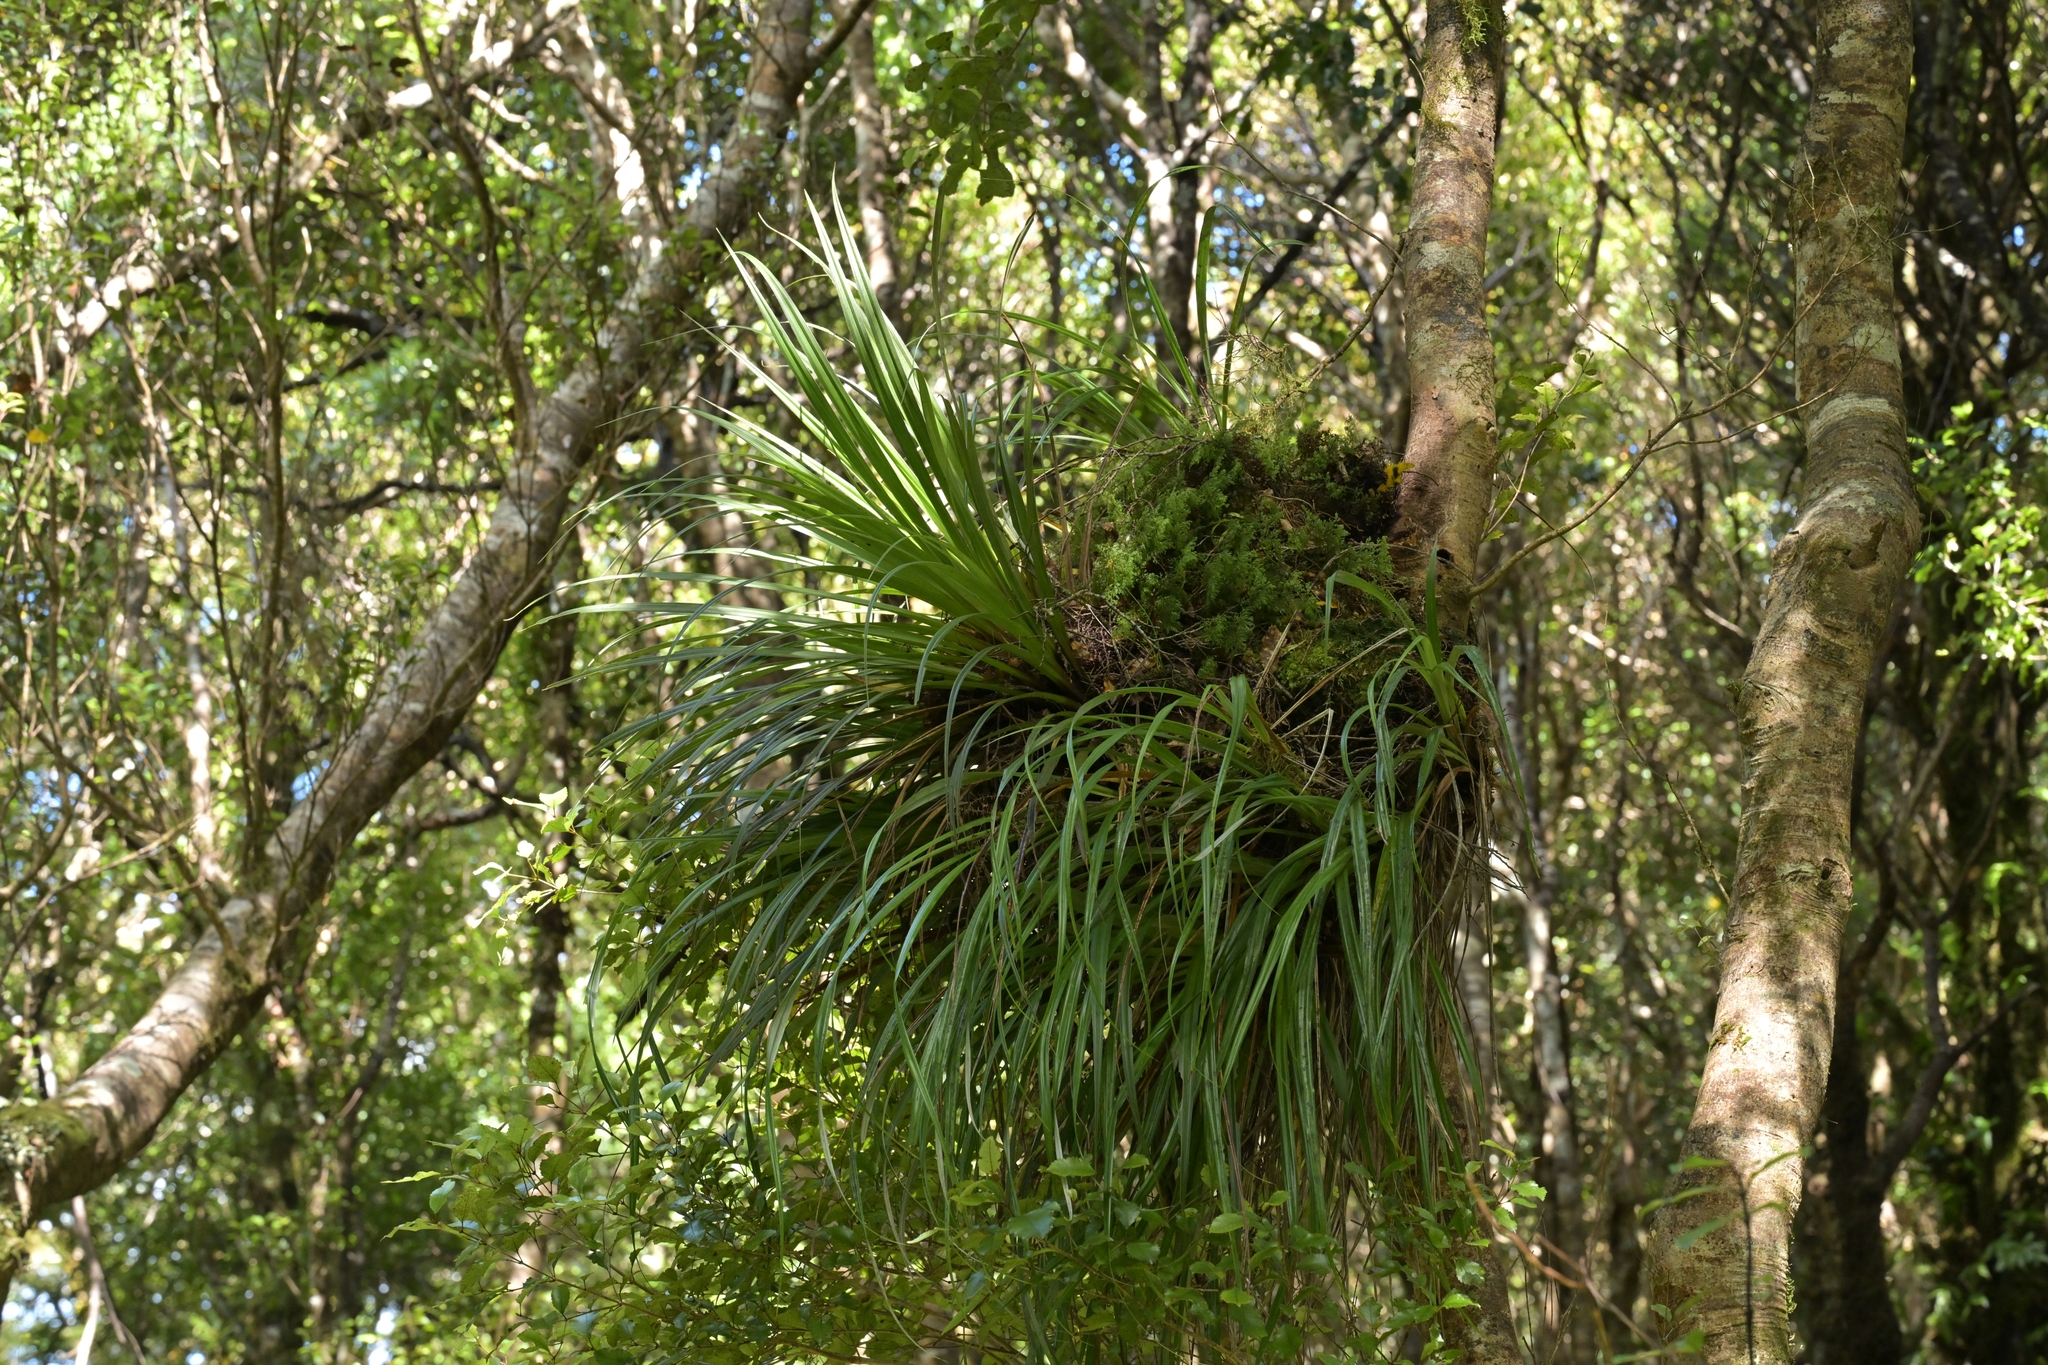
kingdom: Plantae
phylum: Tracheophyta
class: Liliopsida
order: Asparagales
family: Asteliaceae
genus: Astelia
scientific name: Astelia solandri
